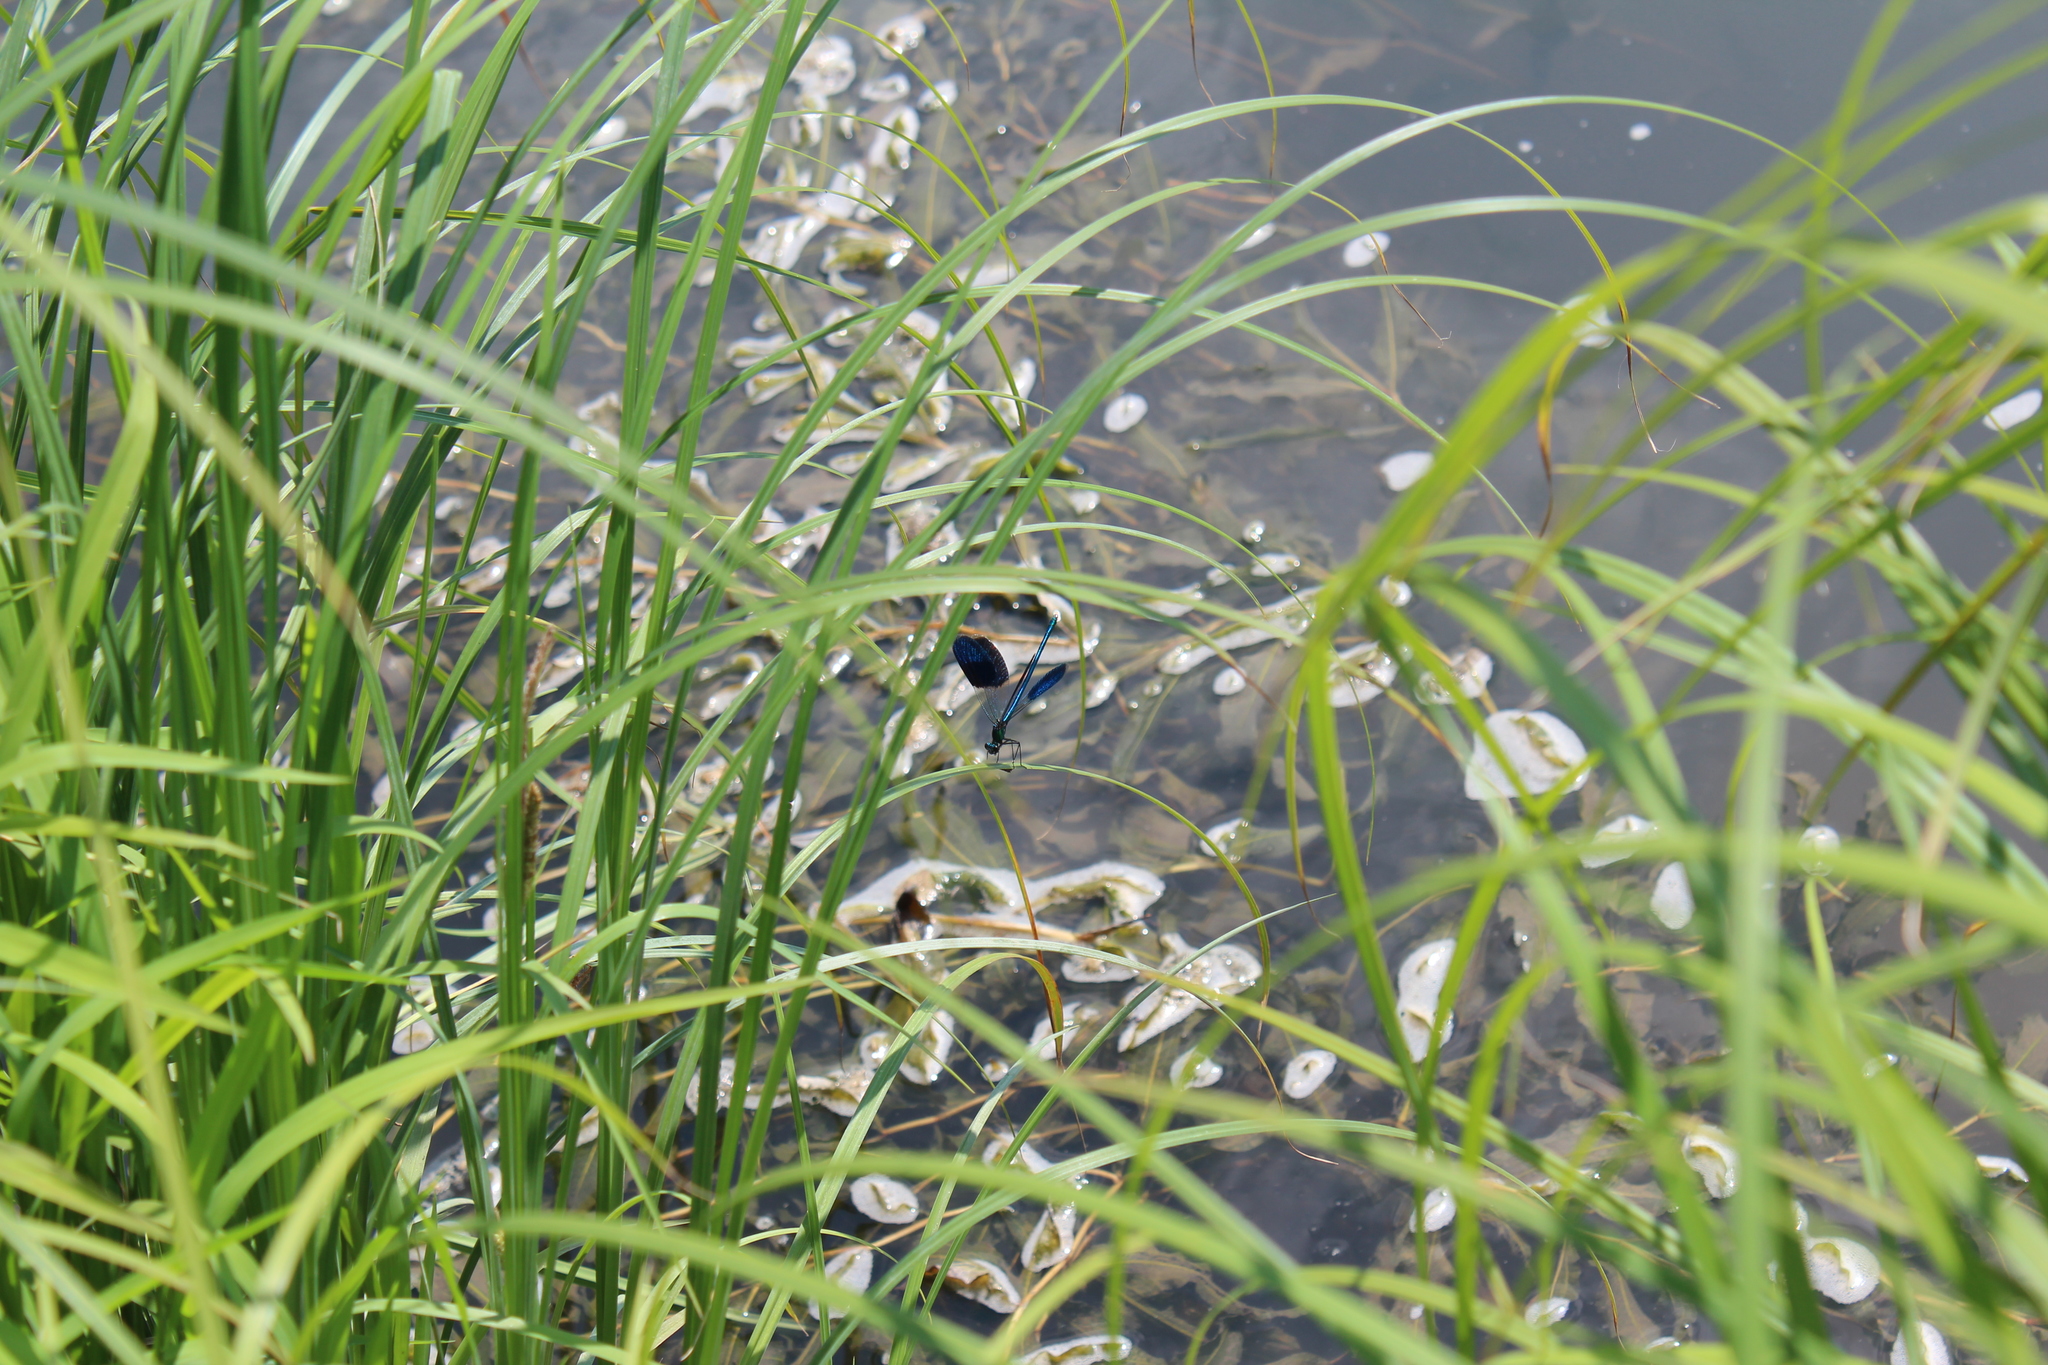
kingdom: Animalia
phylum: Arthropoda
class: Insecta
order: Odonata
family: Calopterygidae
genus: Calopteryx
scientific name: Calopteryx splendens
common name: Banded demoiselle
